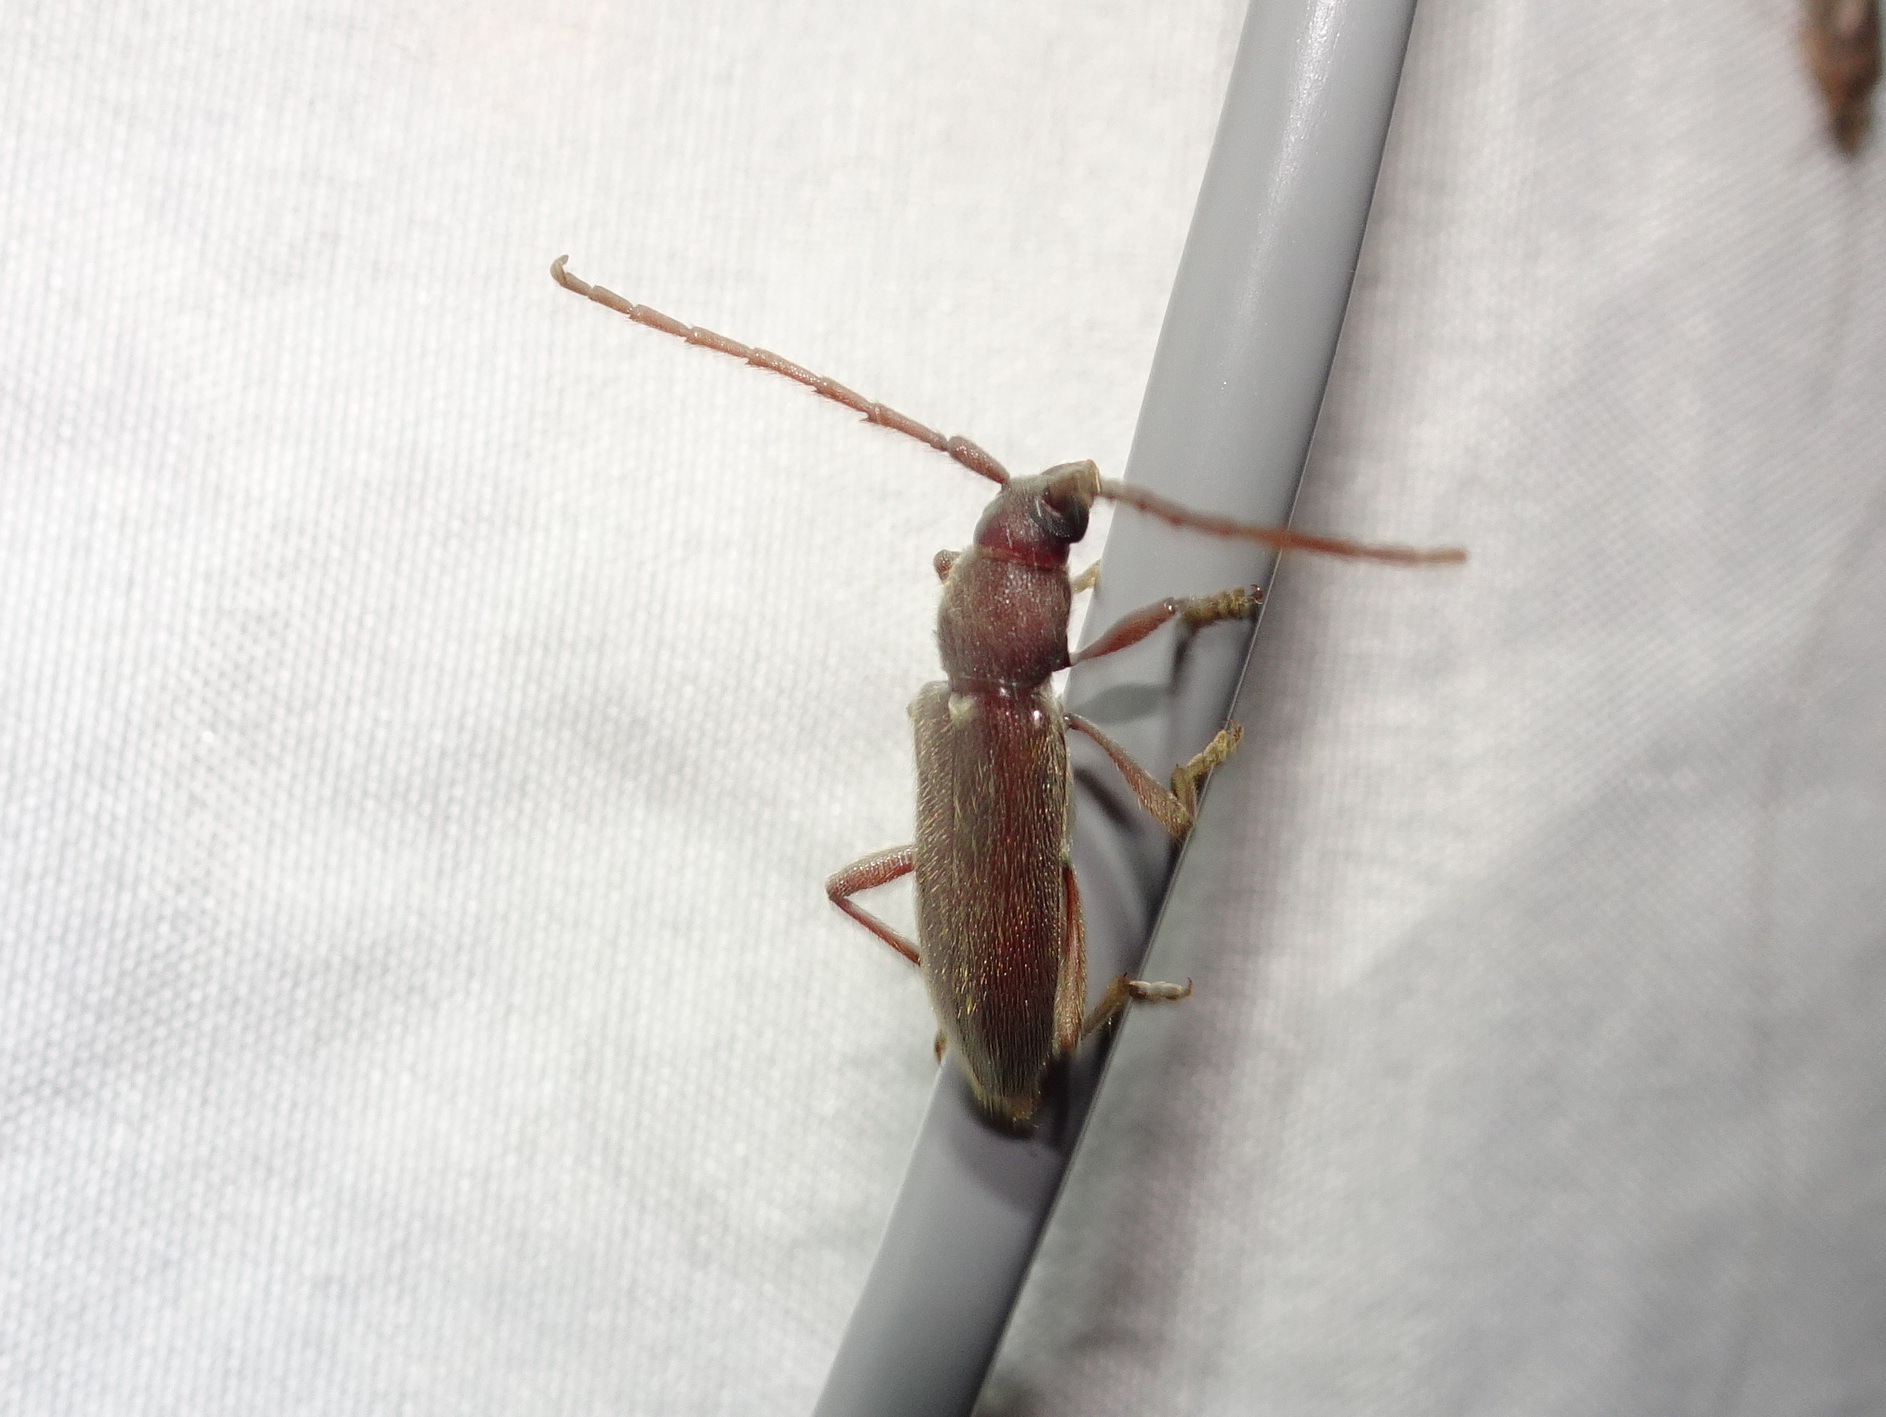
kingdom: Animalia
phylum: Arthropoda
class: Insecta
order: Coleoptera
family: Cerambycidae
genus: Anelaphus
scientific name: Anelaphus moestus
